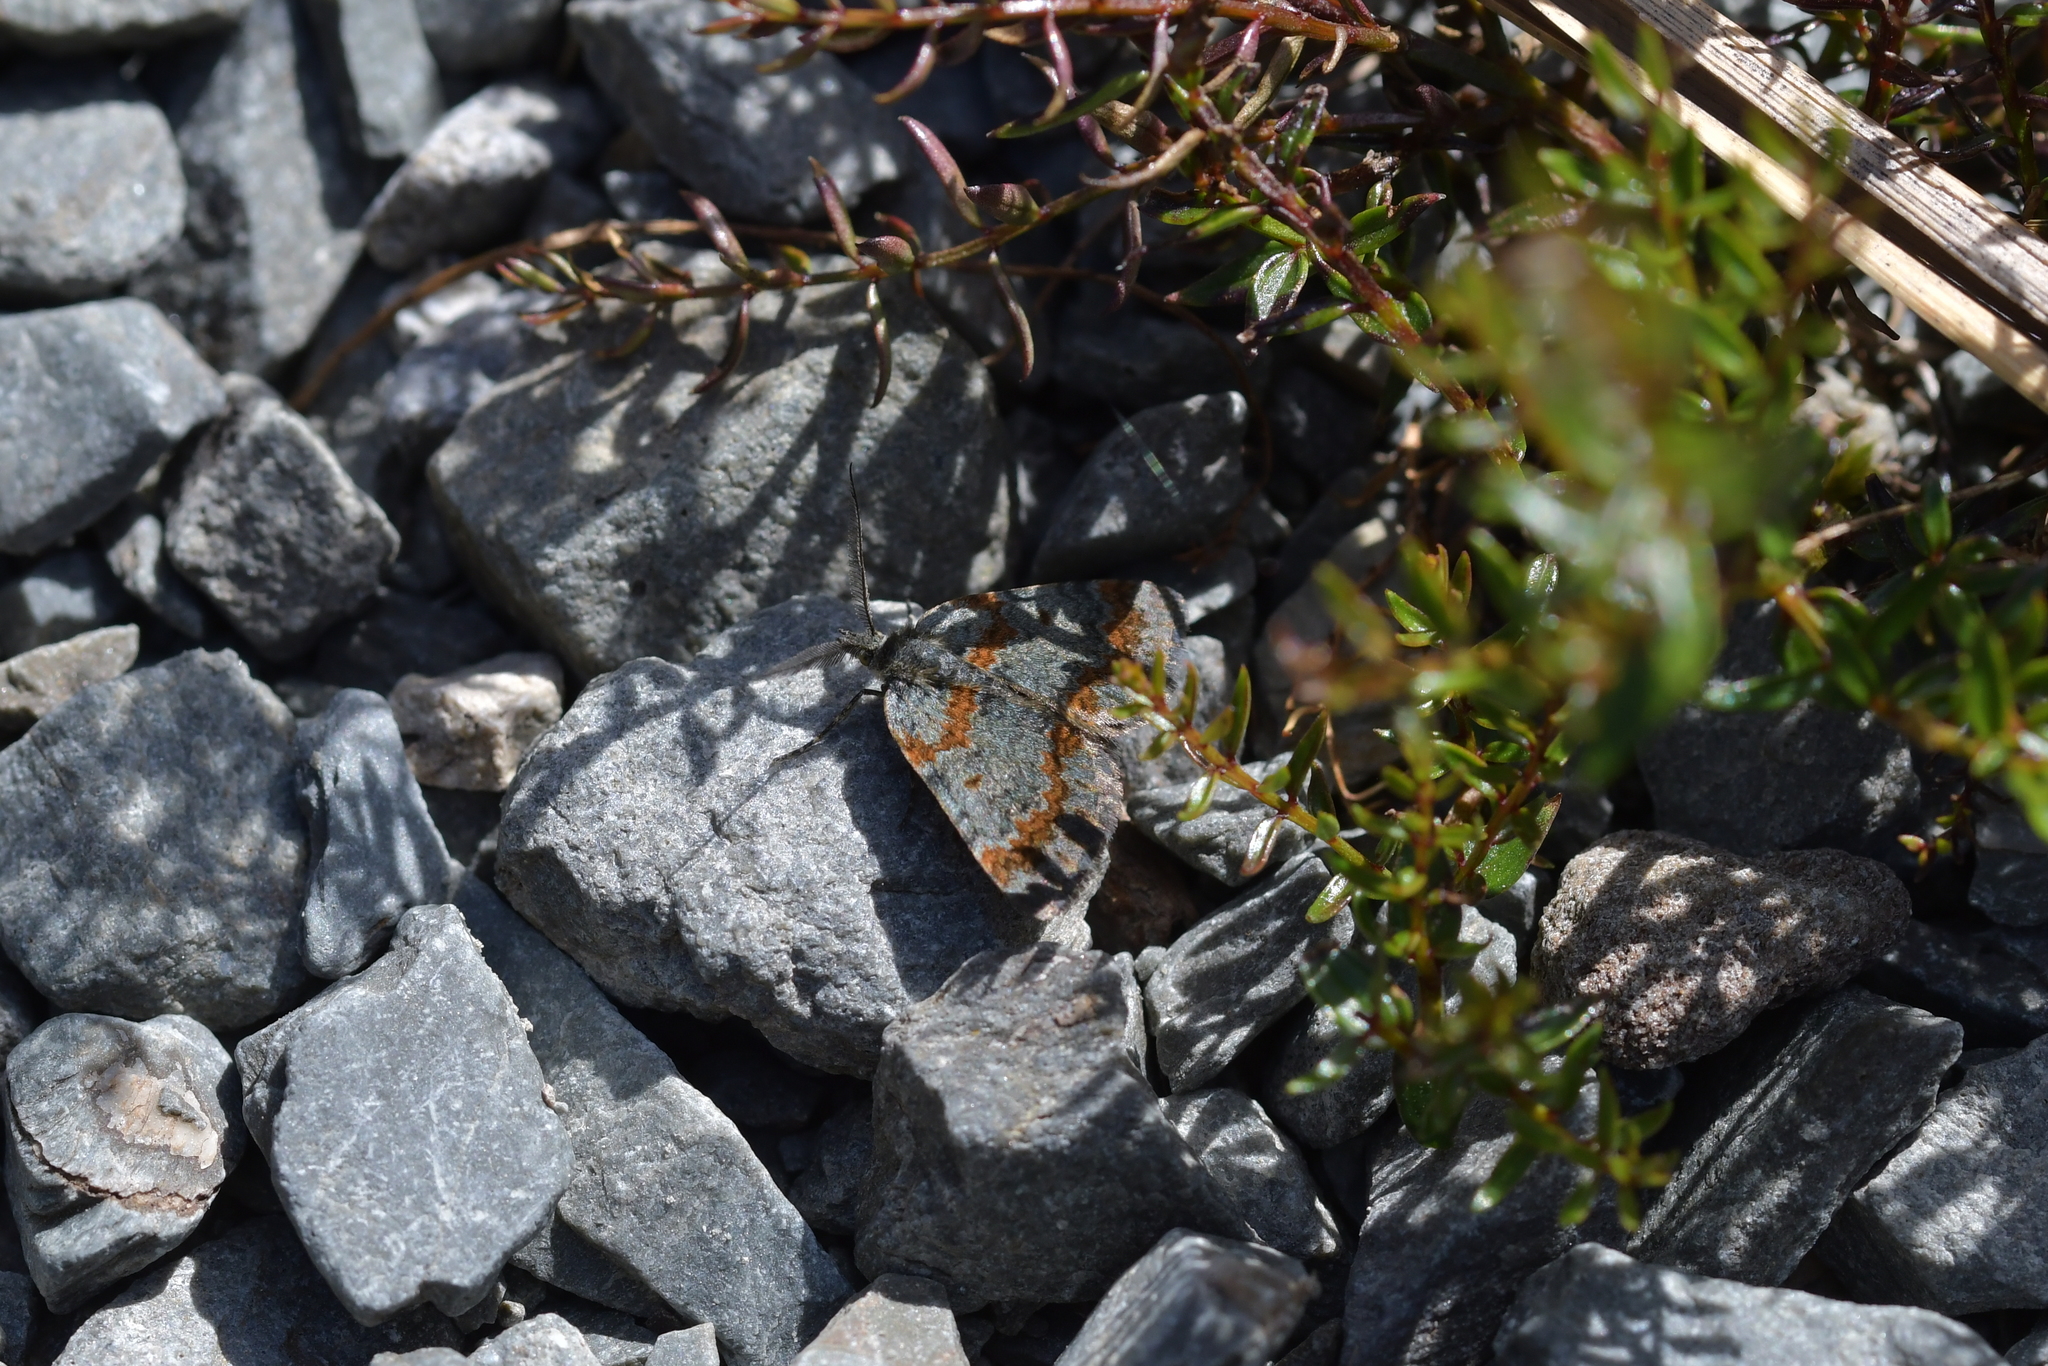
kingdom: Animalia
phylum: Arthropoda
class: Insecta
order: Lepidoptera
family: Geometridae
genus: Paranotoreas
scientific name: Paranotoreas zopyra
